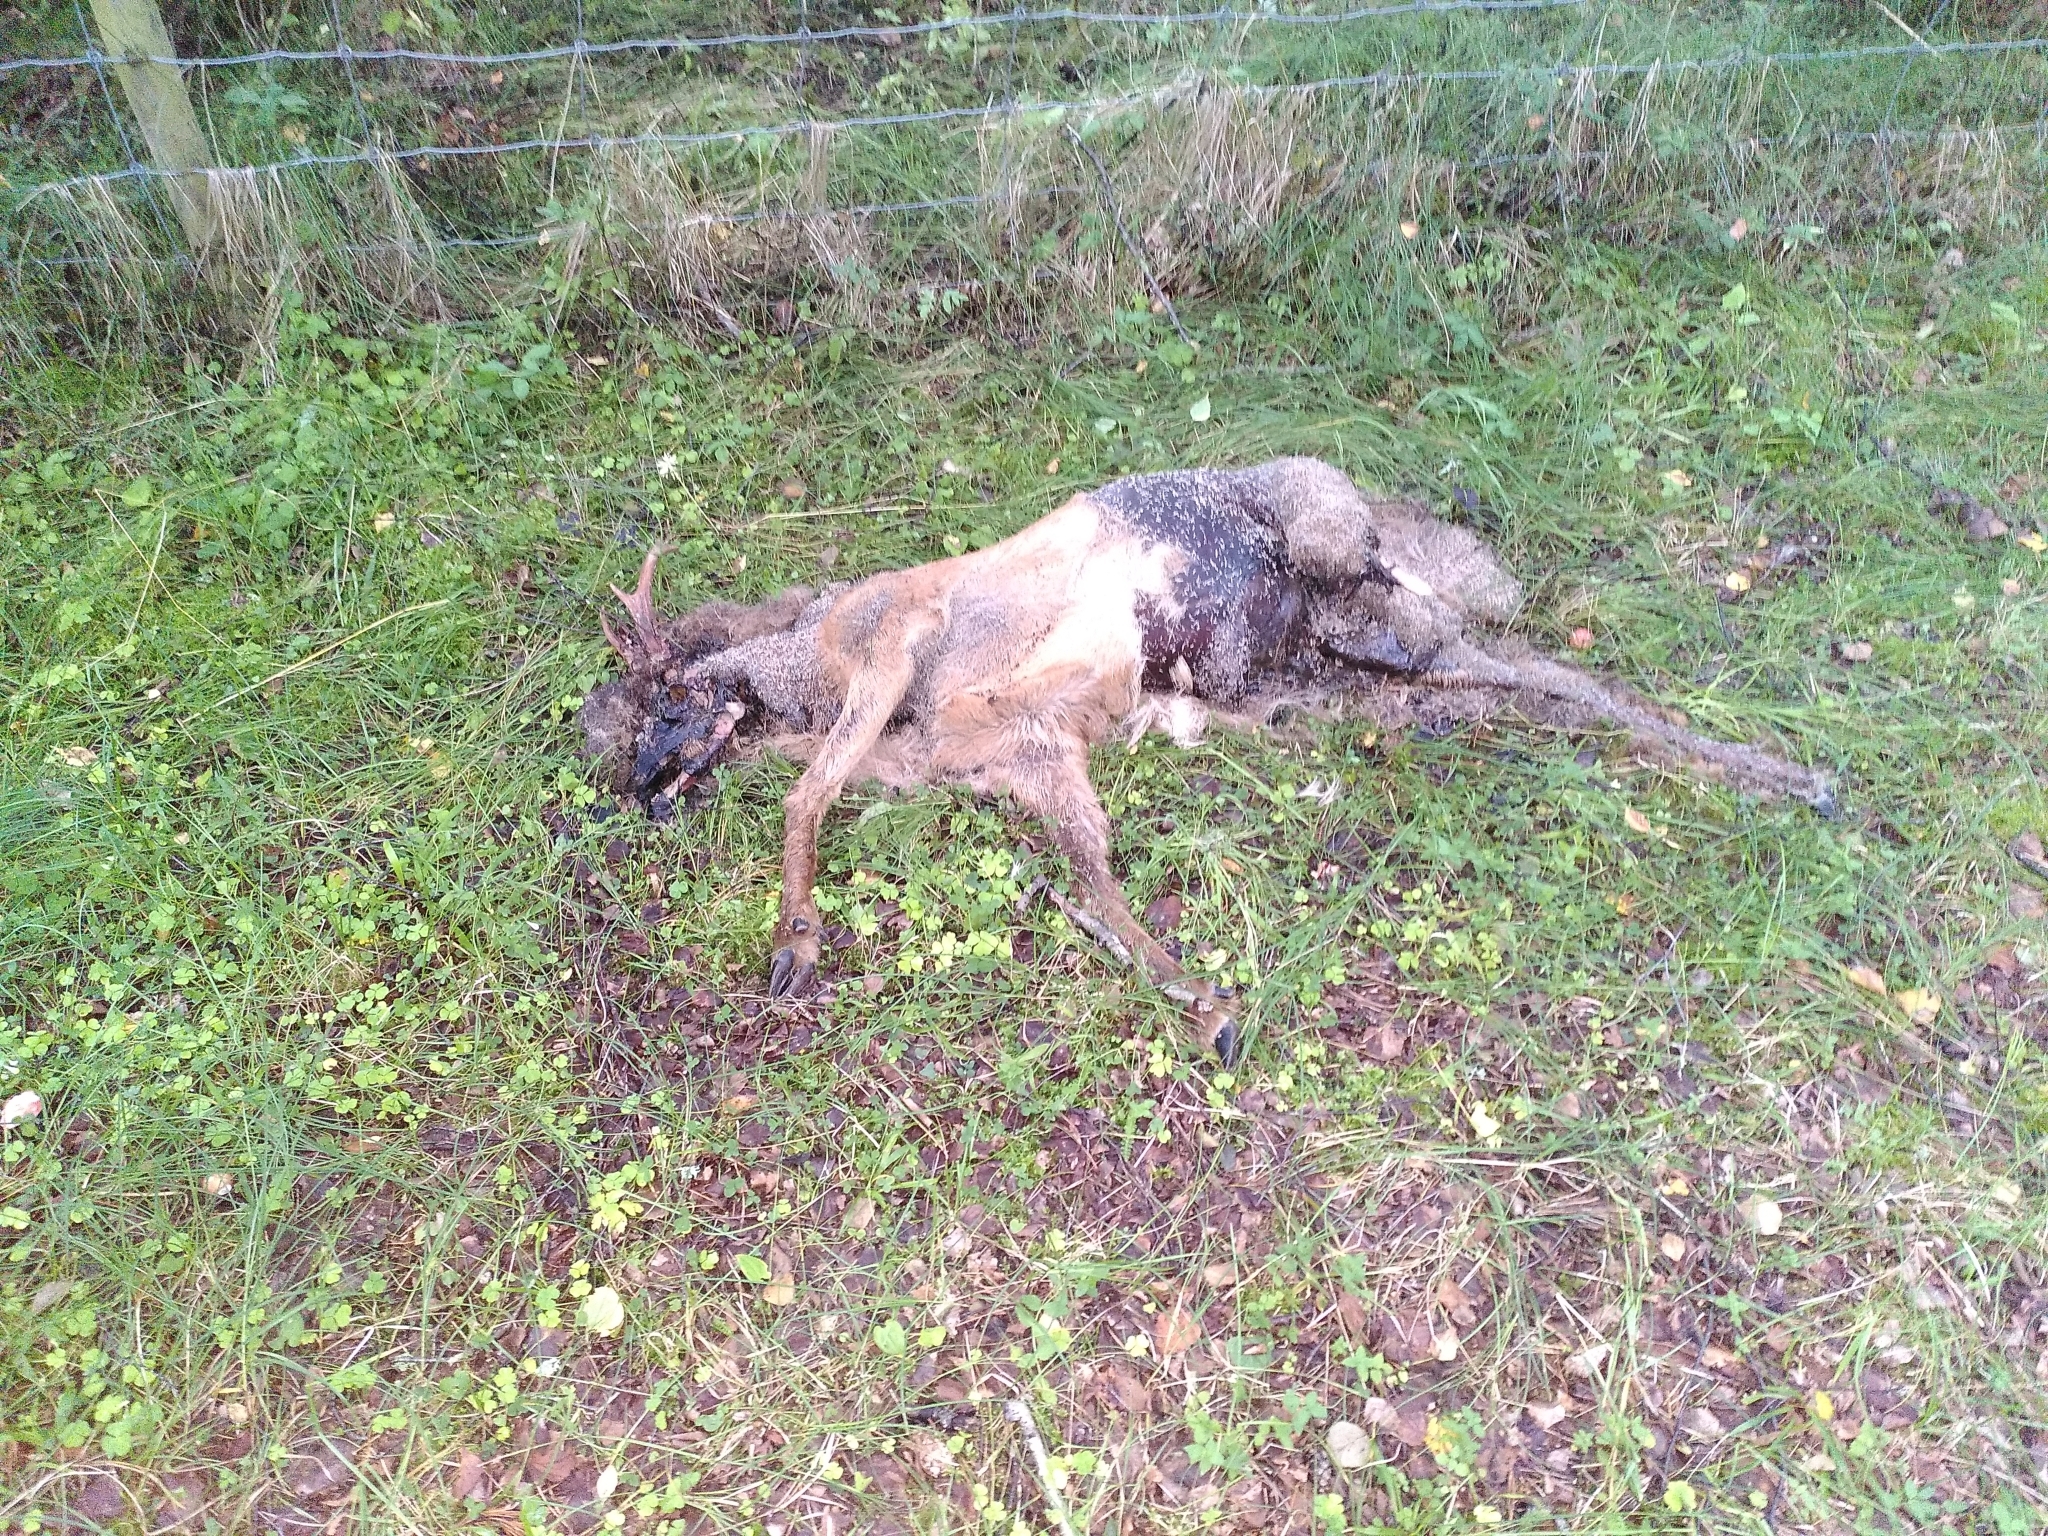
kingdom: Animalia
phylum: Chordata
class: Mammalia
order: Artiodactyla
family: Cervidae
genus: Capreolus
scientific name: Capreolus capreolus
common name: Western roe deer
